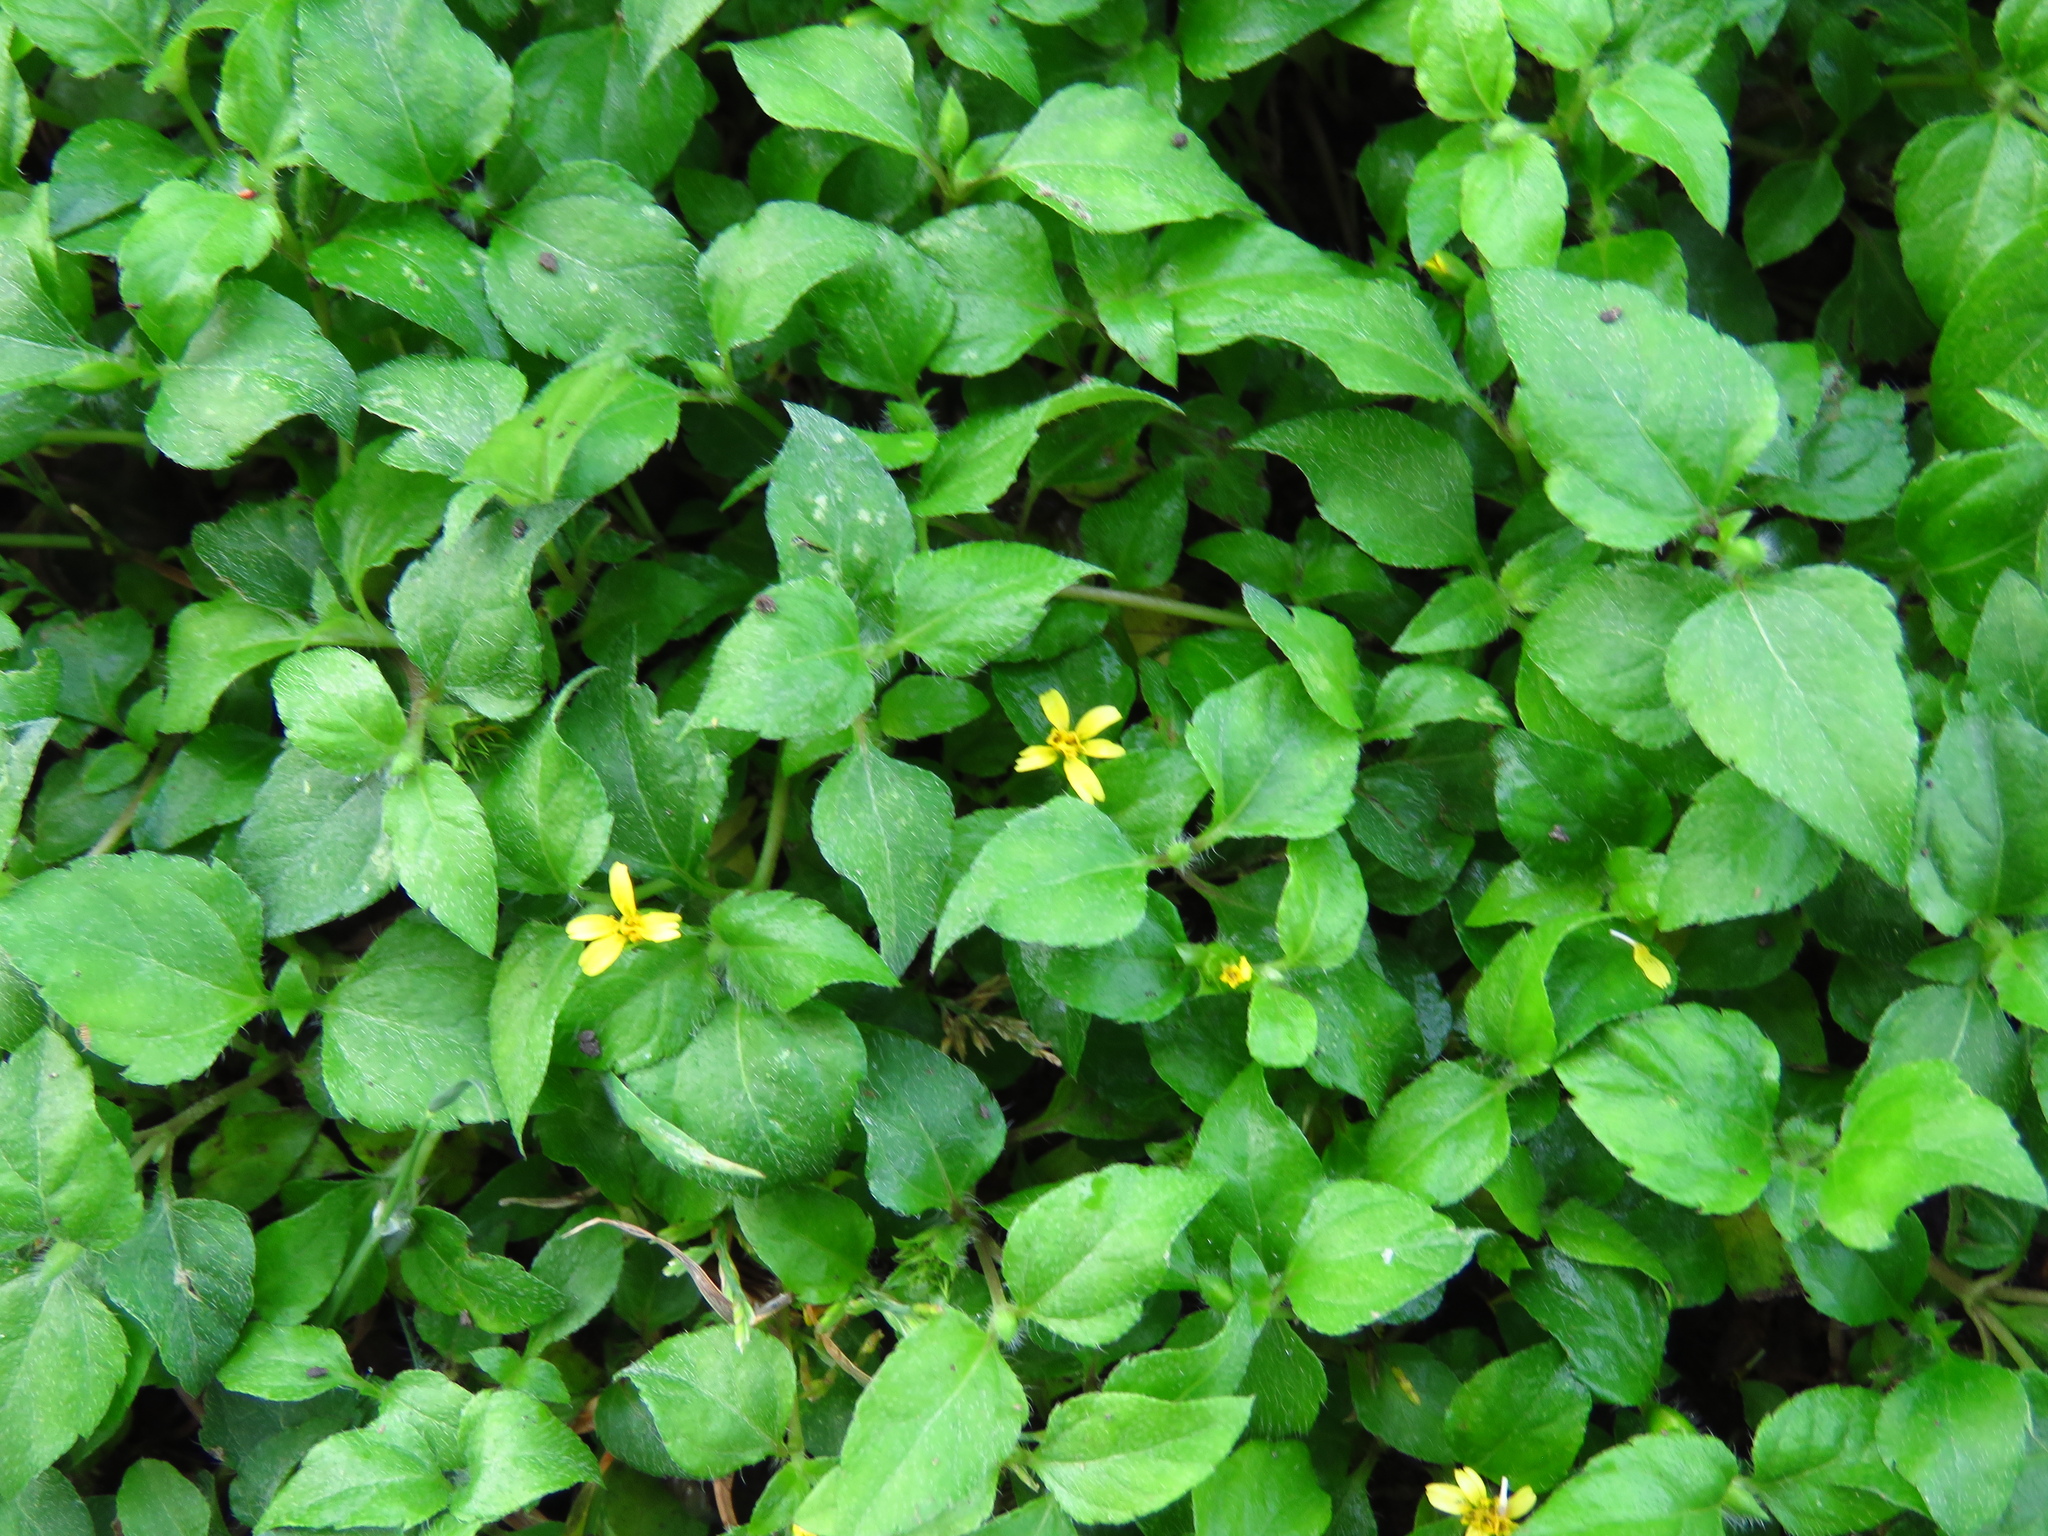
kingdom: Plantae
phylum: Tracheophyta
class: Magnoliopsida
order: Asterales
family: Asteraceae
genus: Calyptocarpus
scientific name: Calyptocarpus vialis
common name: Straggler daisy
